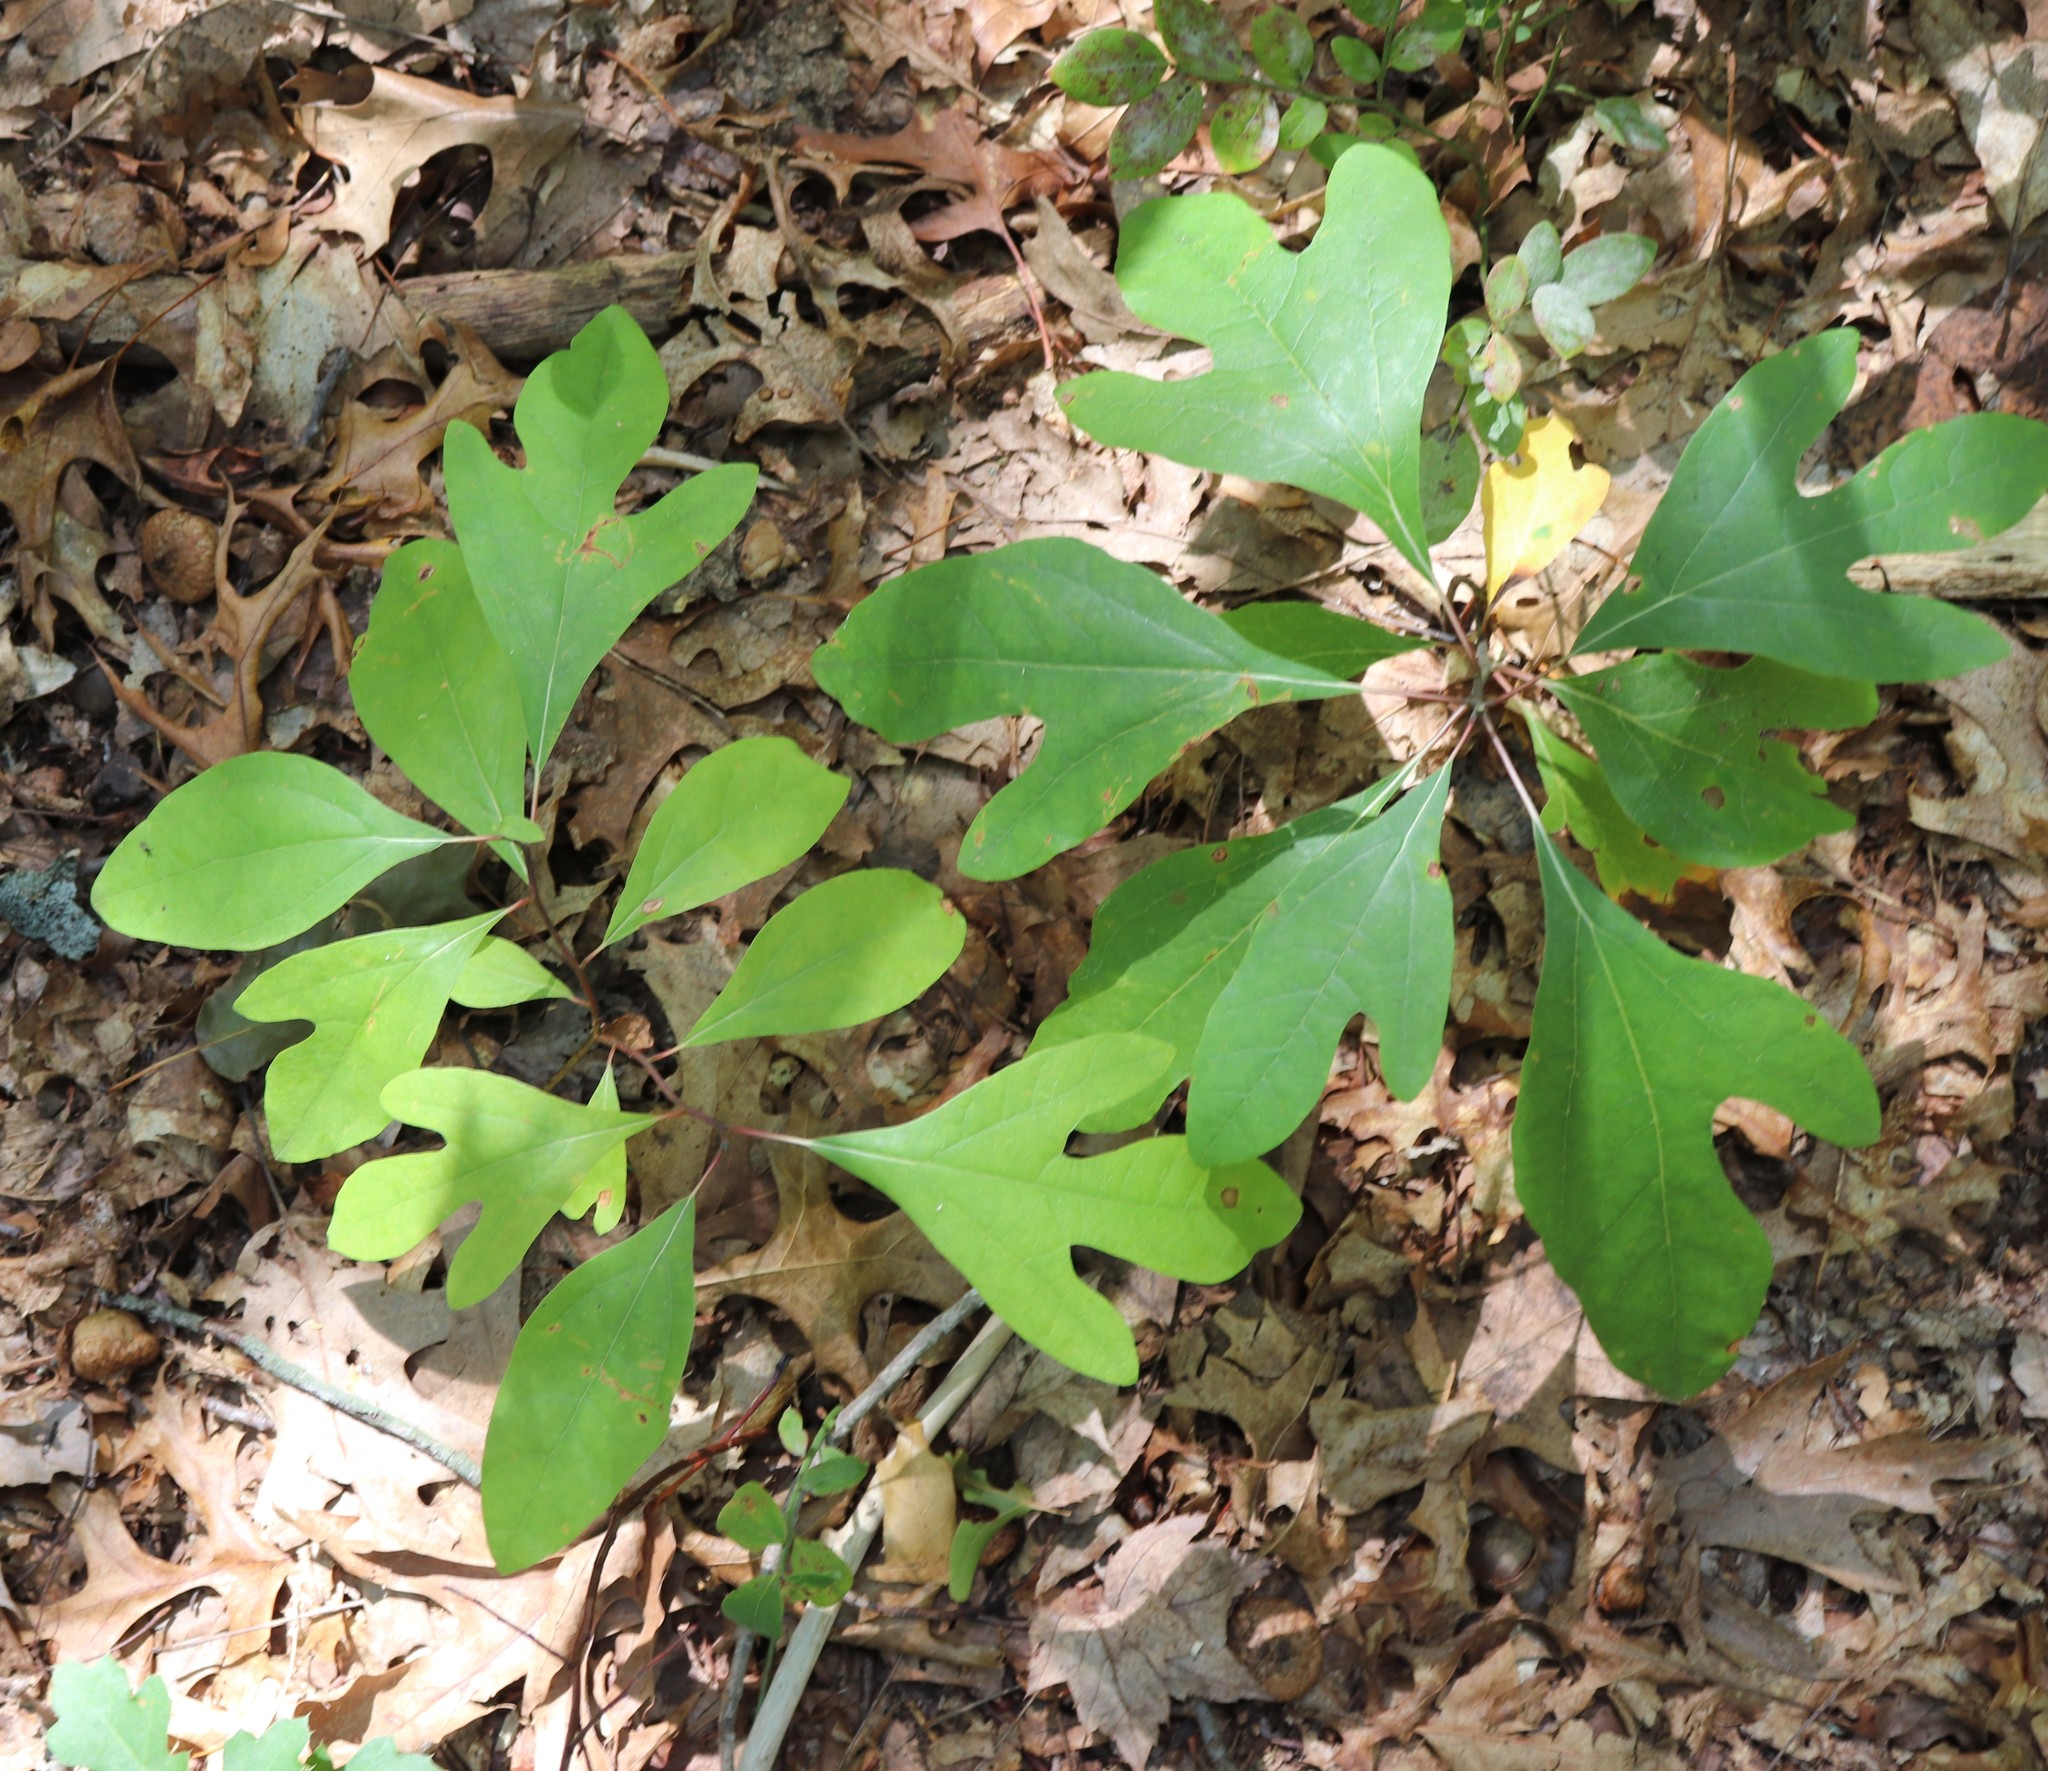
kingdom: Plantae
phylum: Tracheophyta
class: Magnoliopsida
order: Laurales
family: Lauraceae
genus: Sassafras
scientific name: Sassafras albidum
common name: Sassafras
